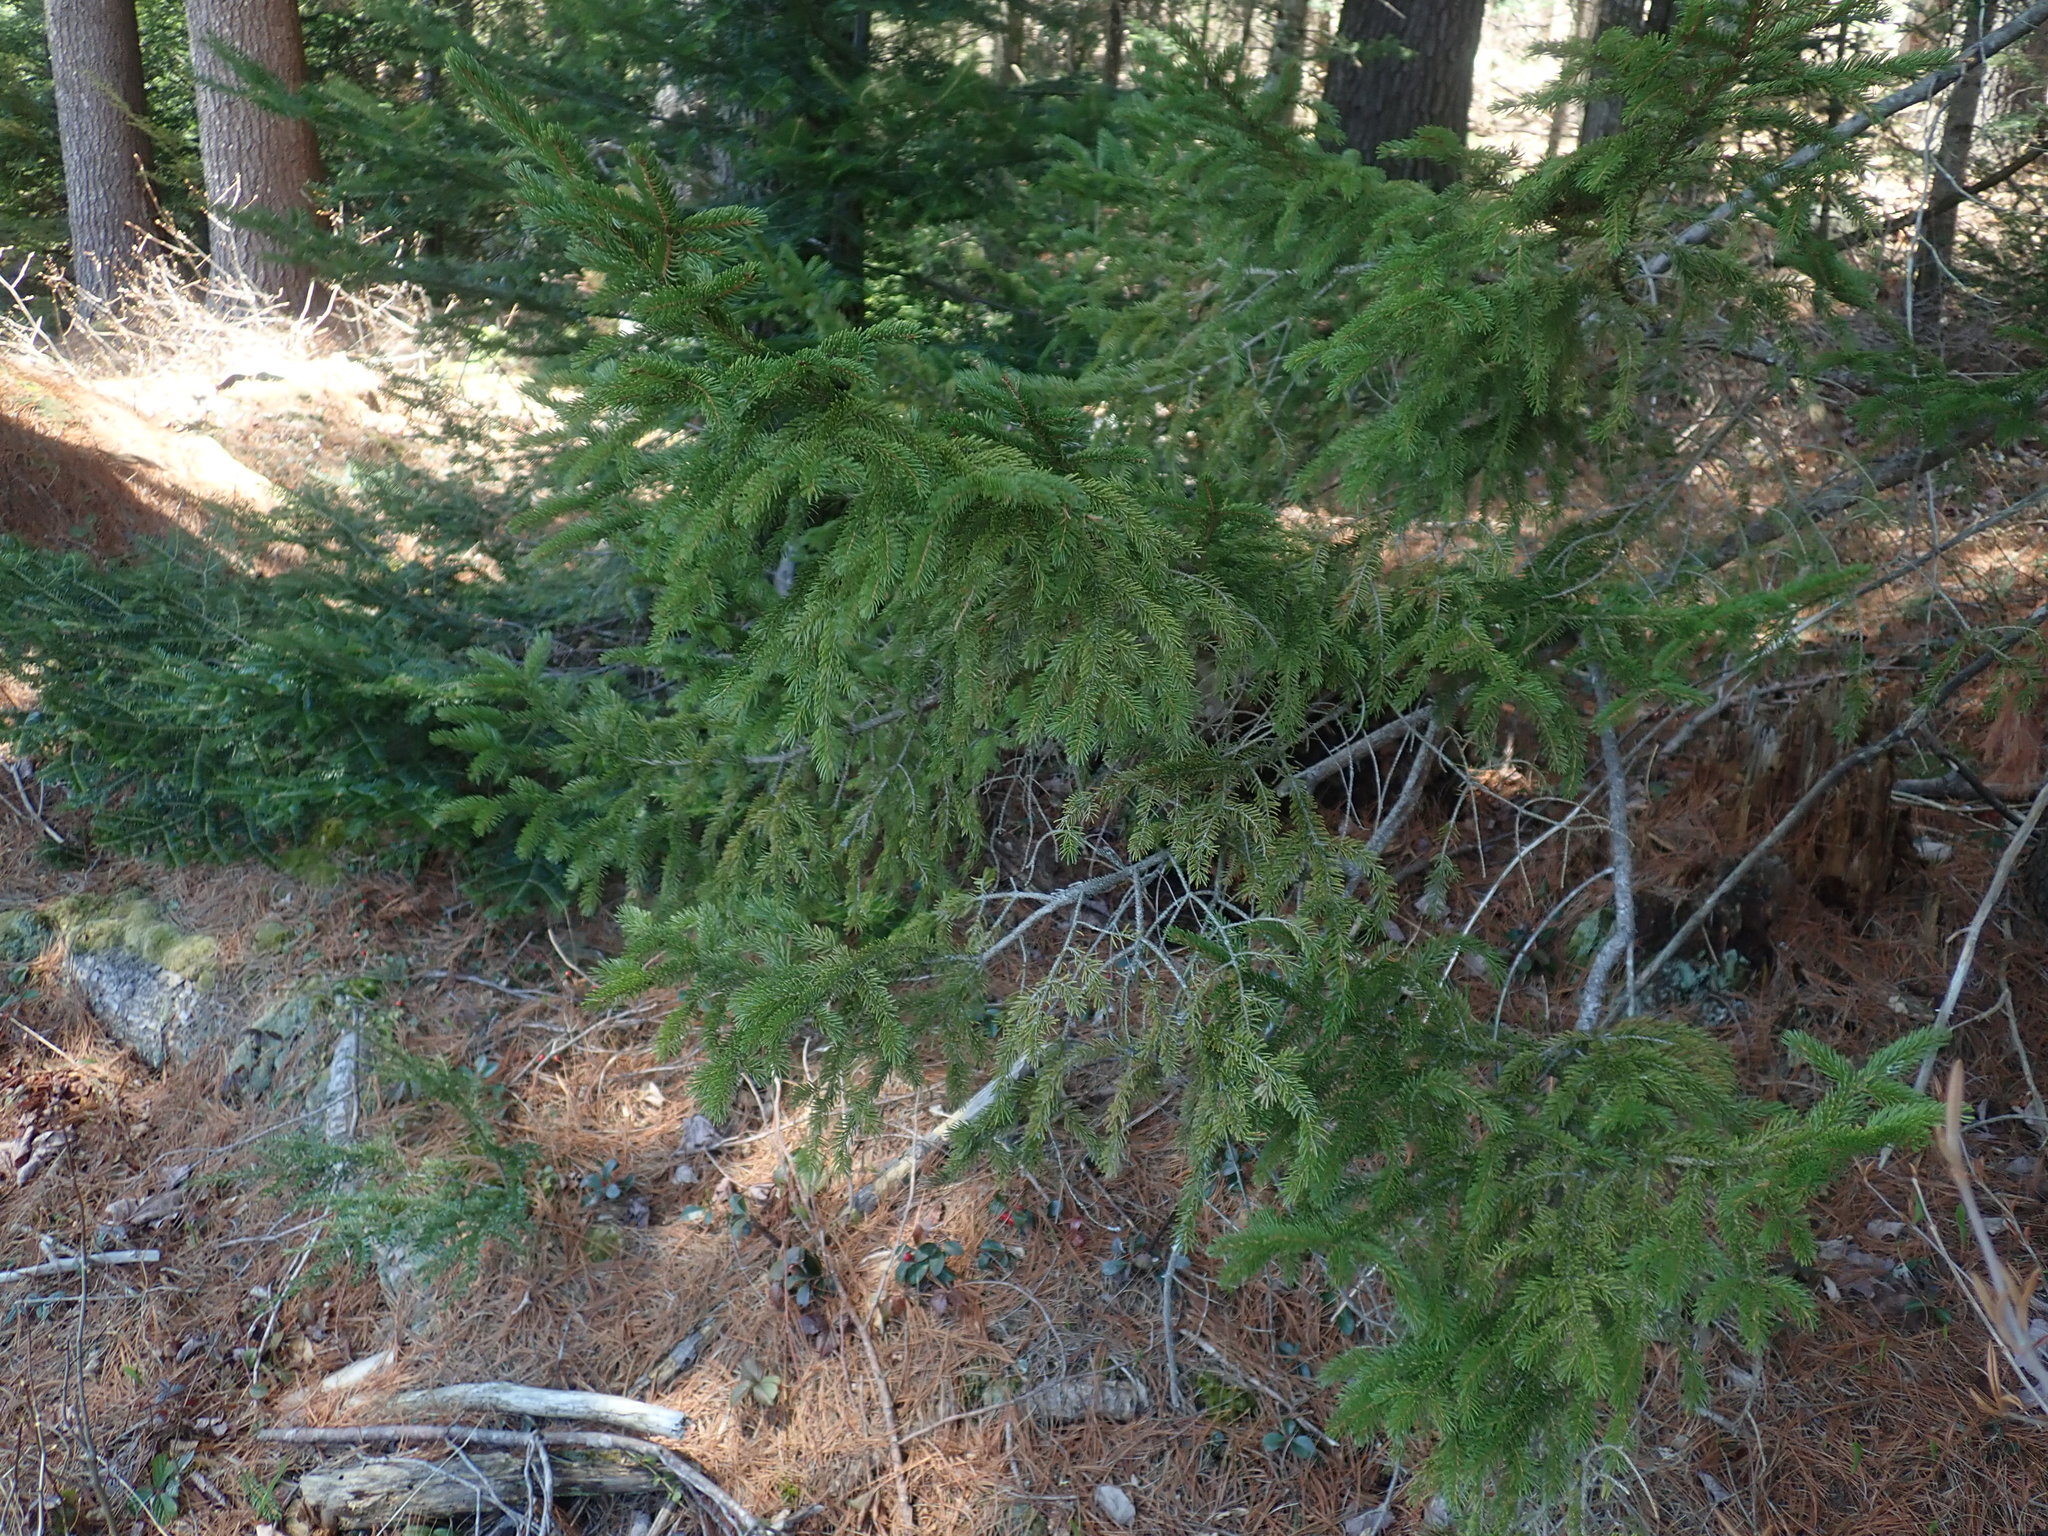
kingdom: Plantae
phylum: Tracheophyta
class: Pinopsida
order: Pinales
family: Pinaceae
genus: Picea
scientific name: Picea rubens
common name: Red spruce
